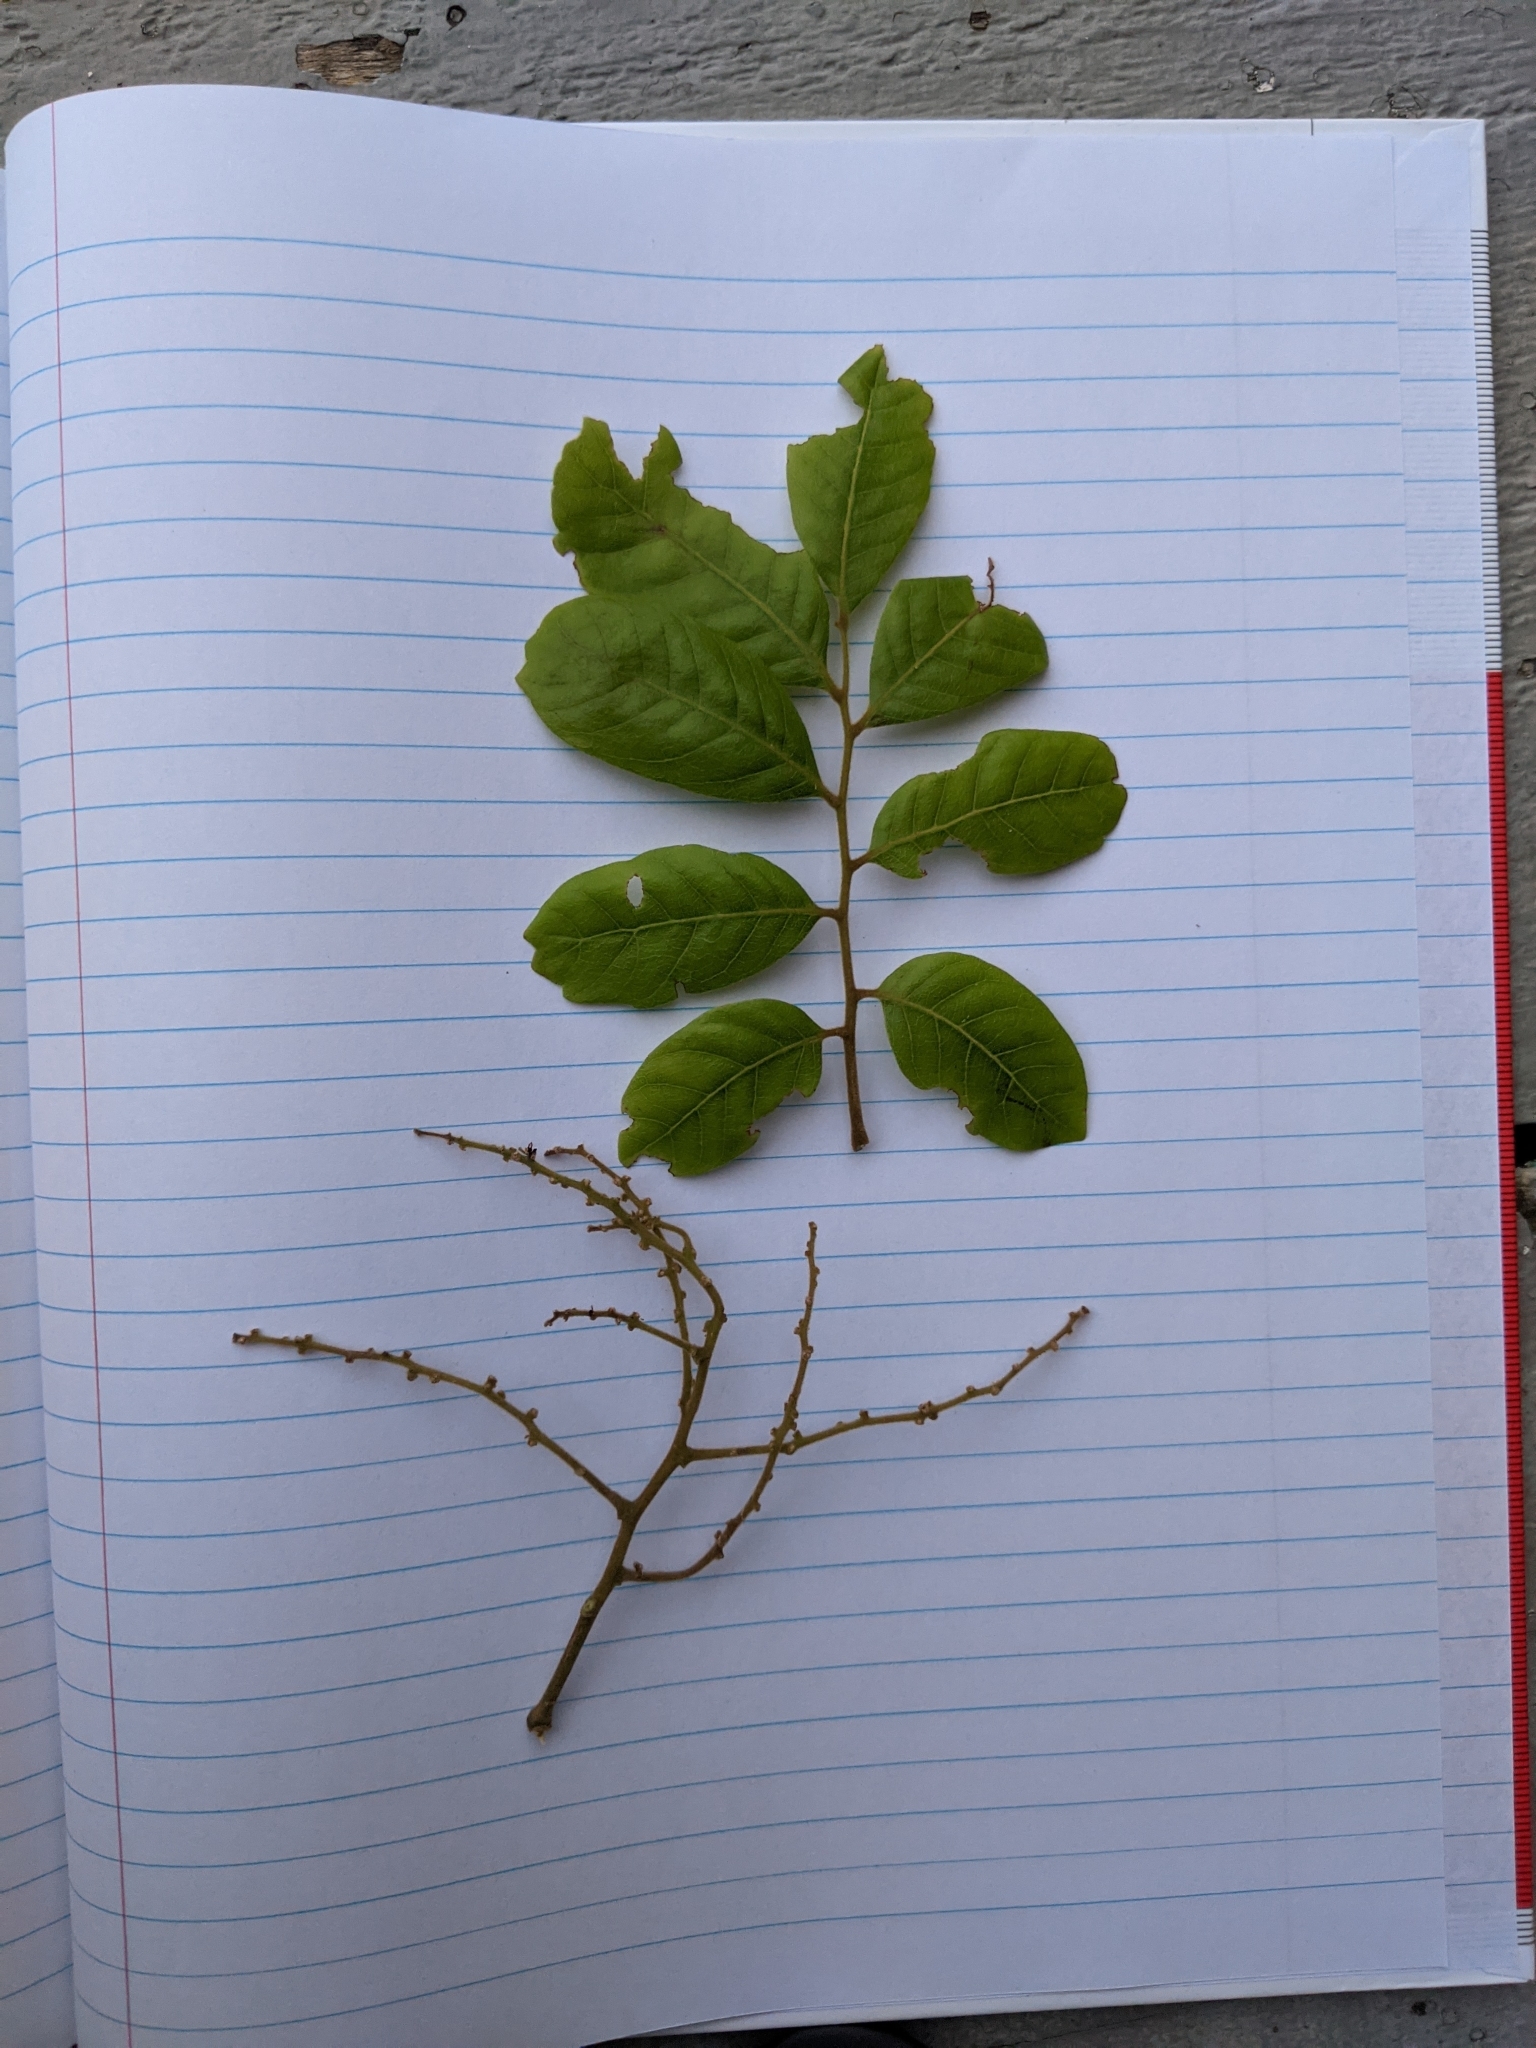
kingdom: Plantae
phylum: Tracheophyta
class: Magnoliopsida
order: Sapindales
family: Sapindaceae
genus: Alectryon
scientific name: Alectryon excelsus
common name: Three kings titoki
